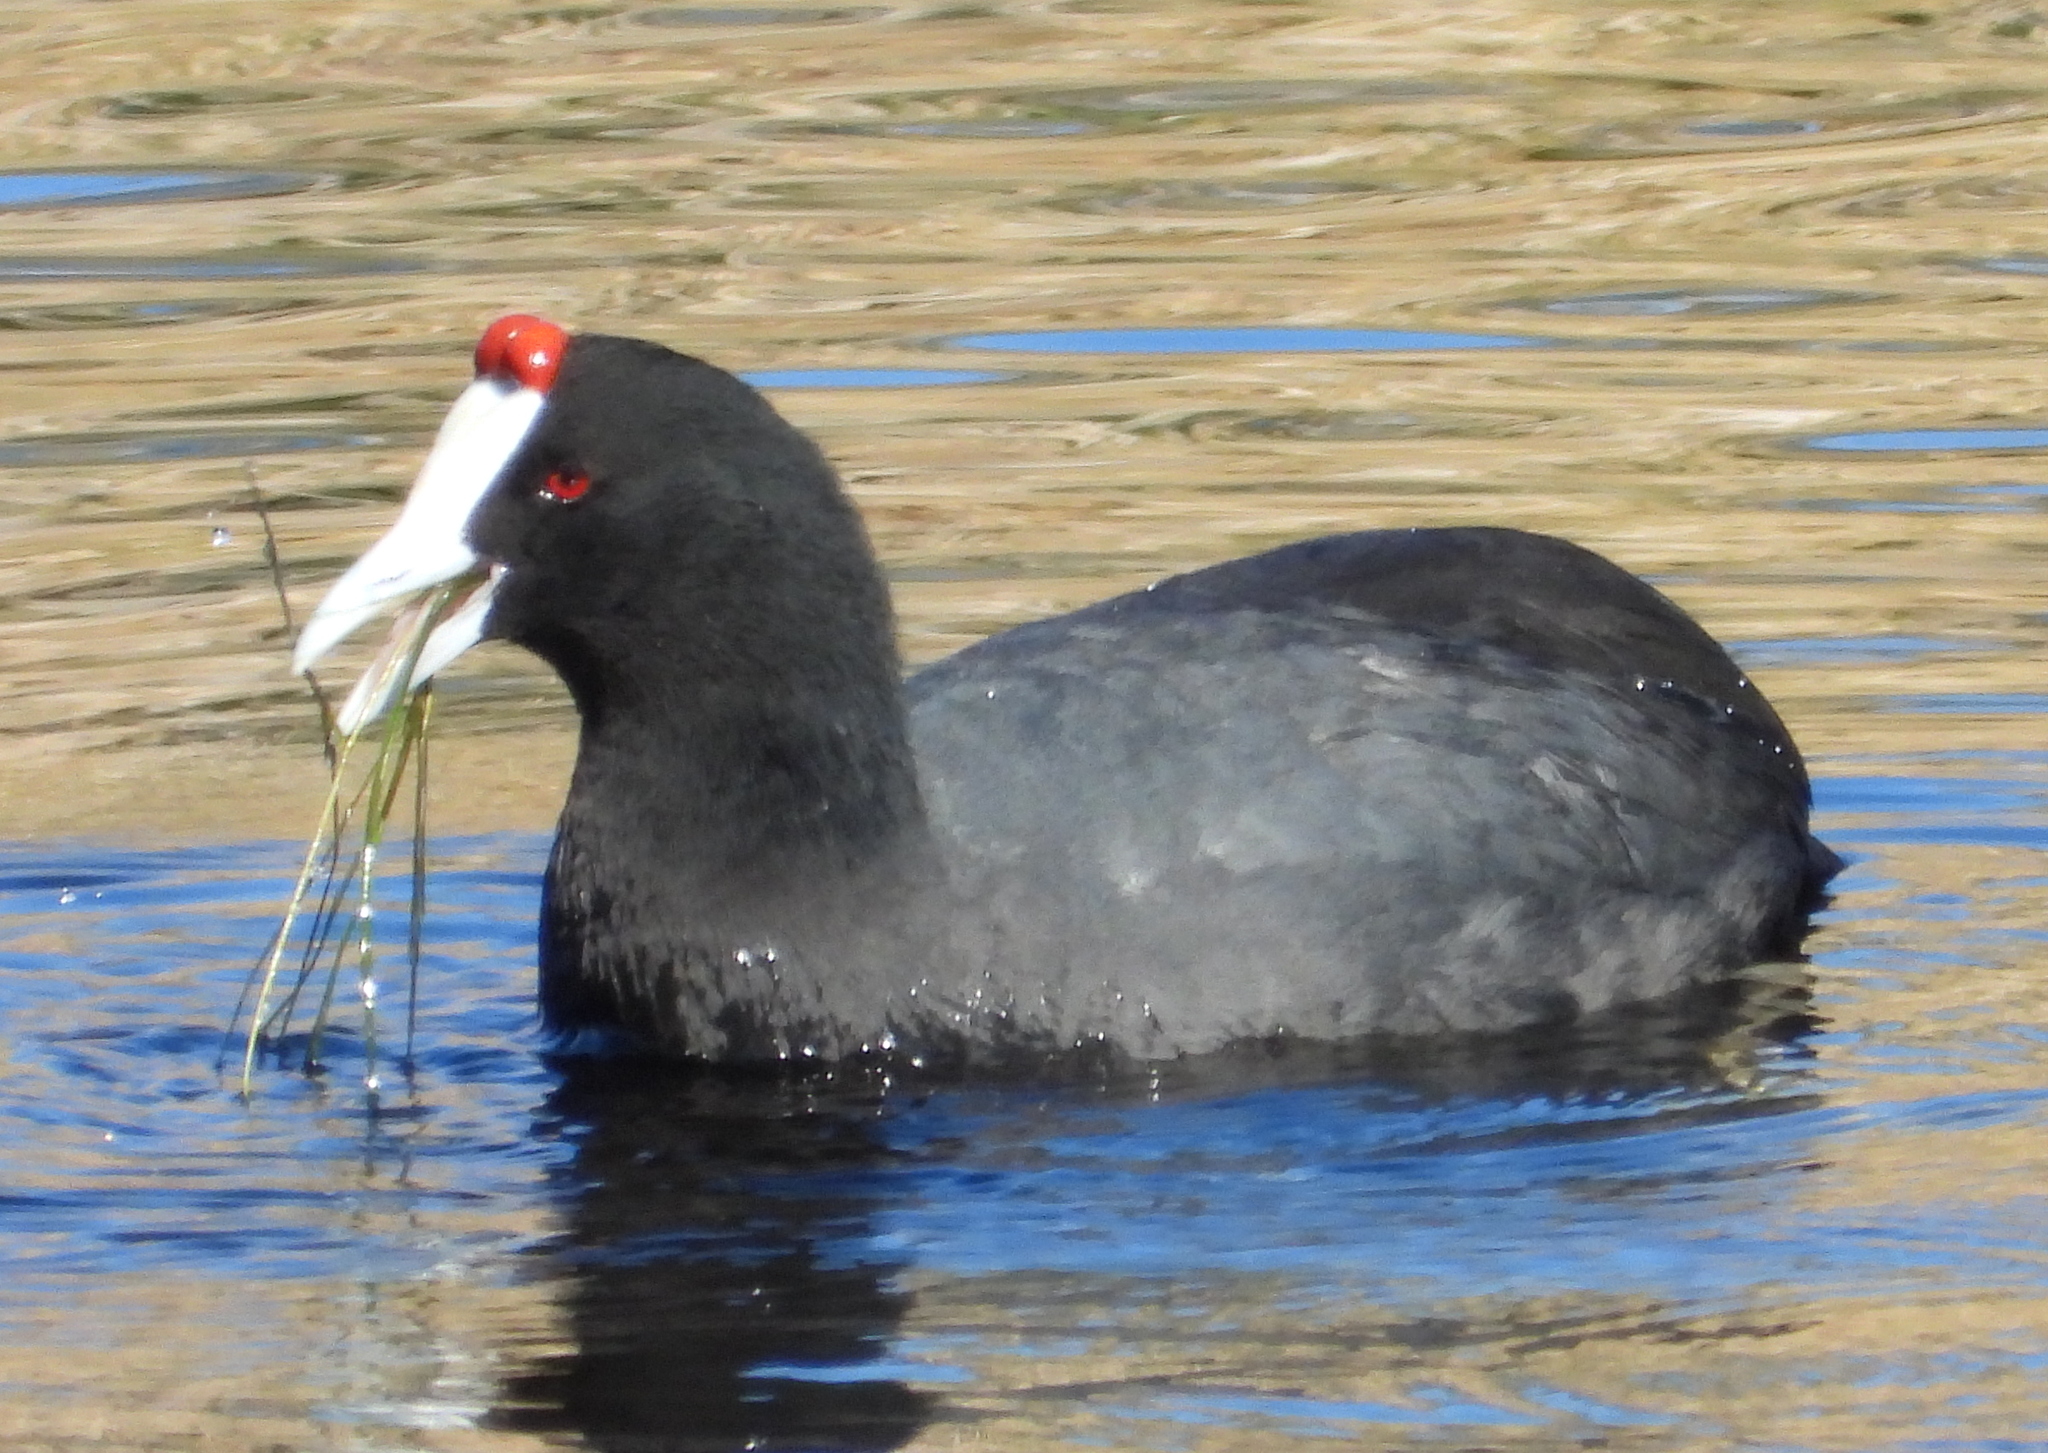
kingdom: Animalia
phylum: Chordata
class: Aves
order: Gruiformes
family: Rallidae
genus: Fulica
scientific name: Fulica cristata
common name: Red-knobbed coot
